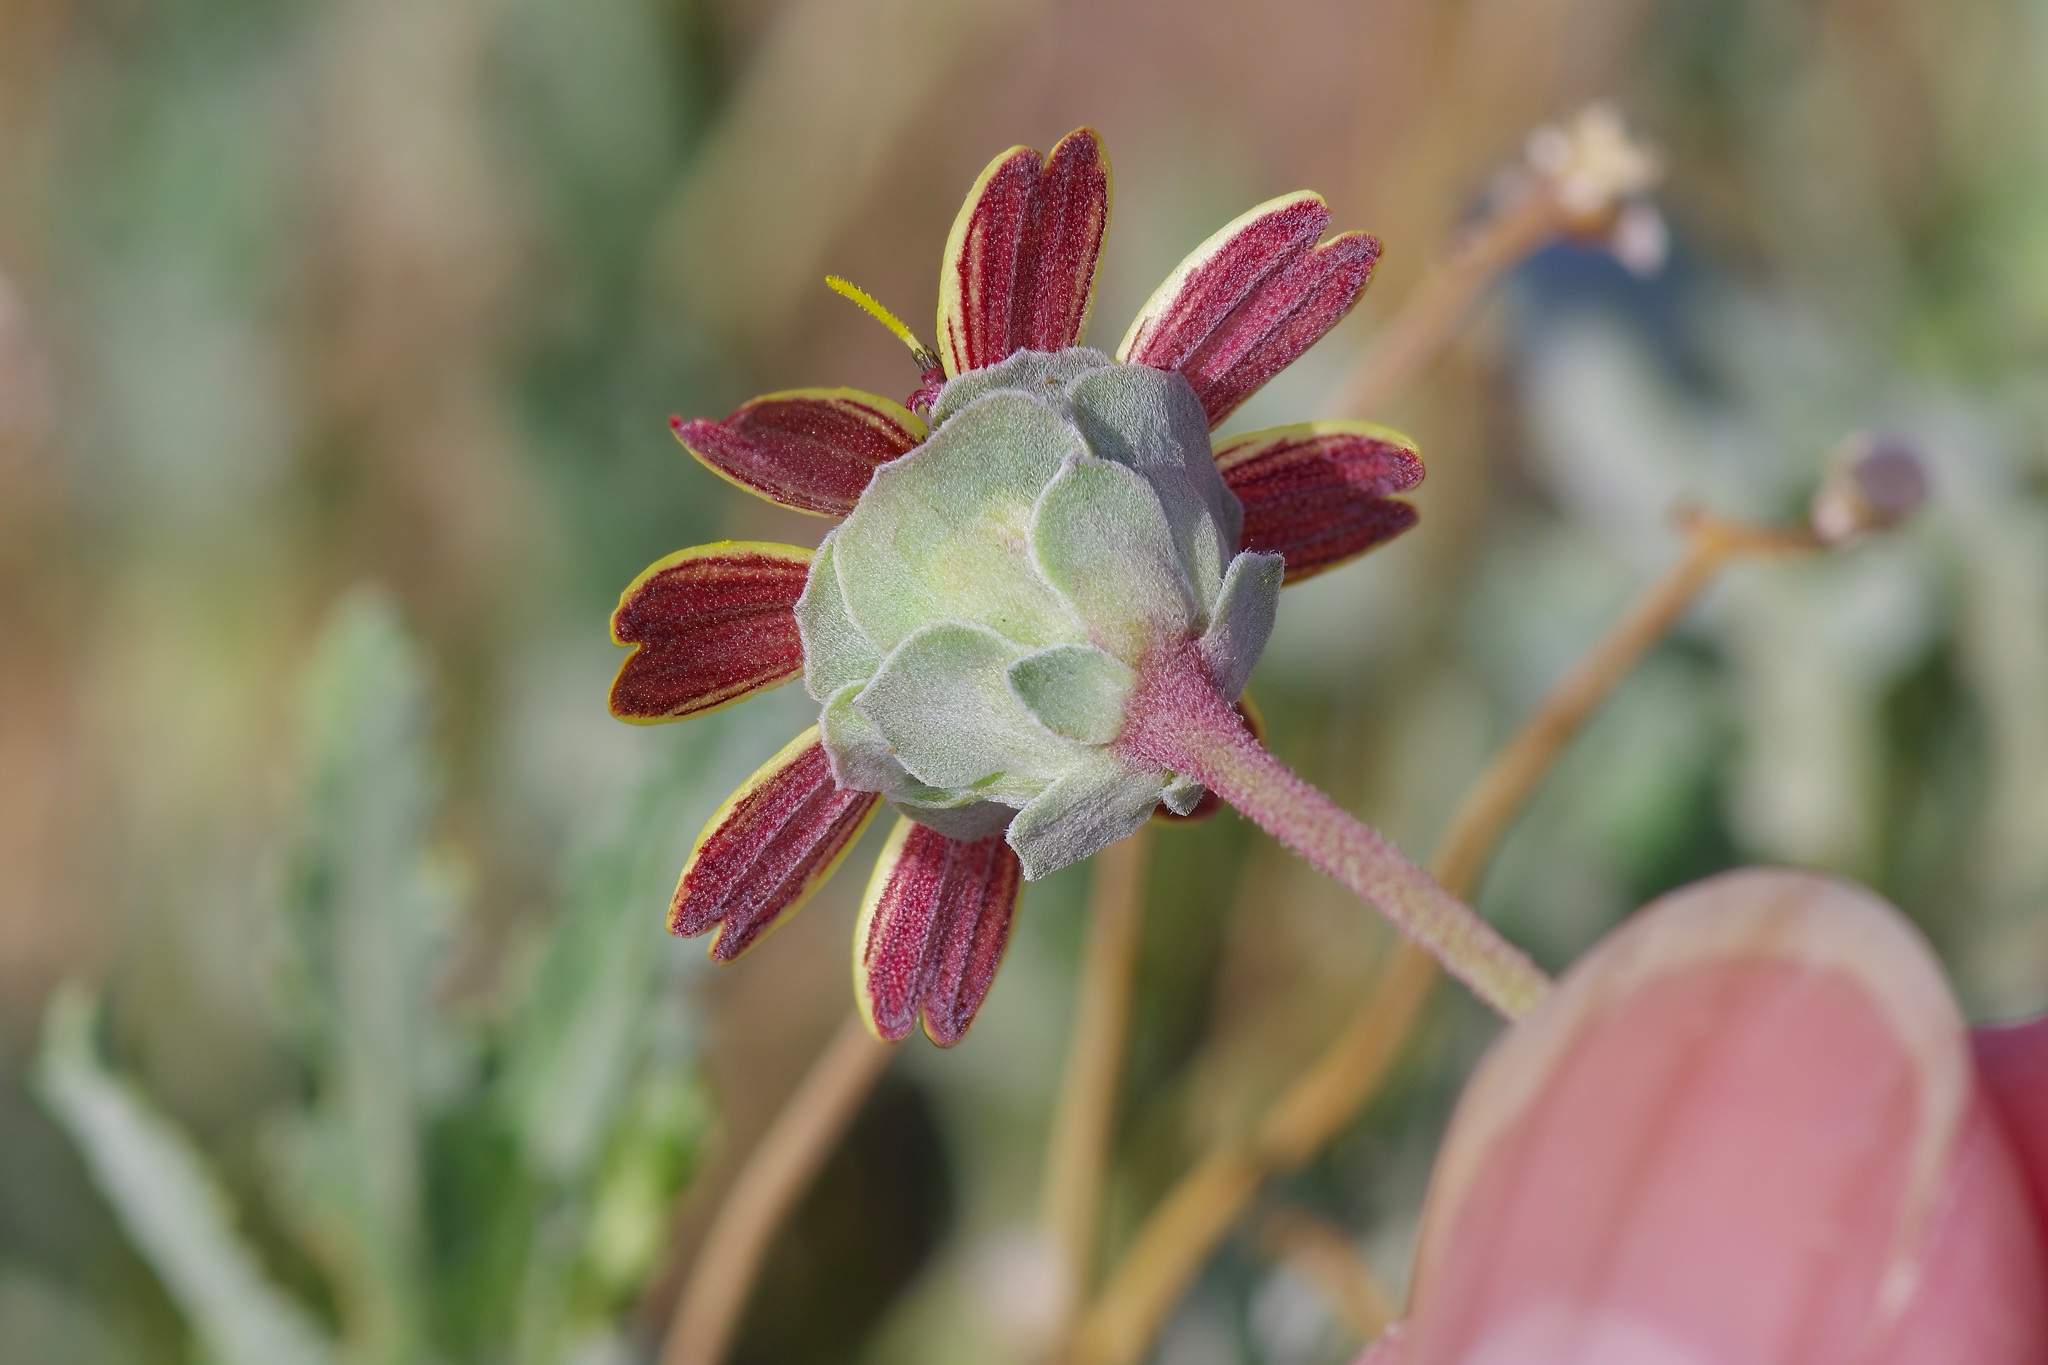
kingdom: Plantae
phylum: Tracheophyta
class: Magnoliopsida
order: Asterales
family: Asteraceae
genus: Berlandiera
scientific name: Berlandiera lyrata
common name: Chocolate-flower
